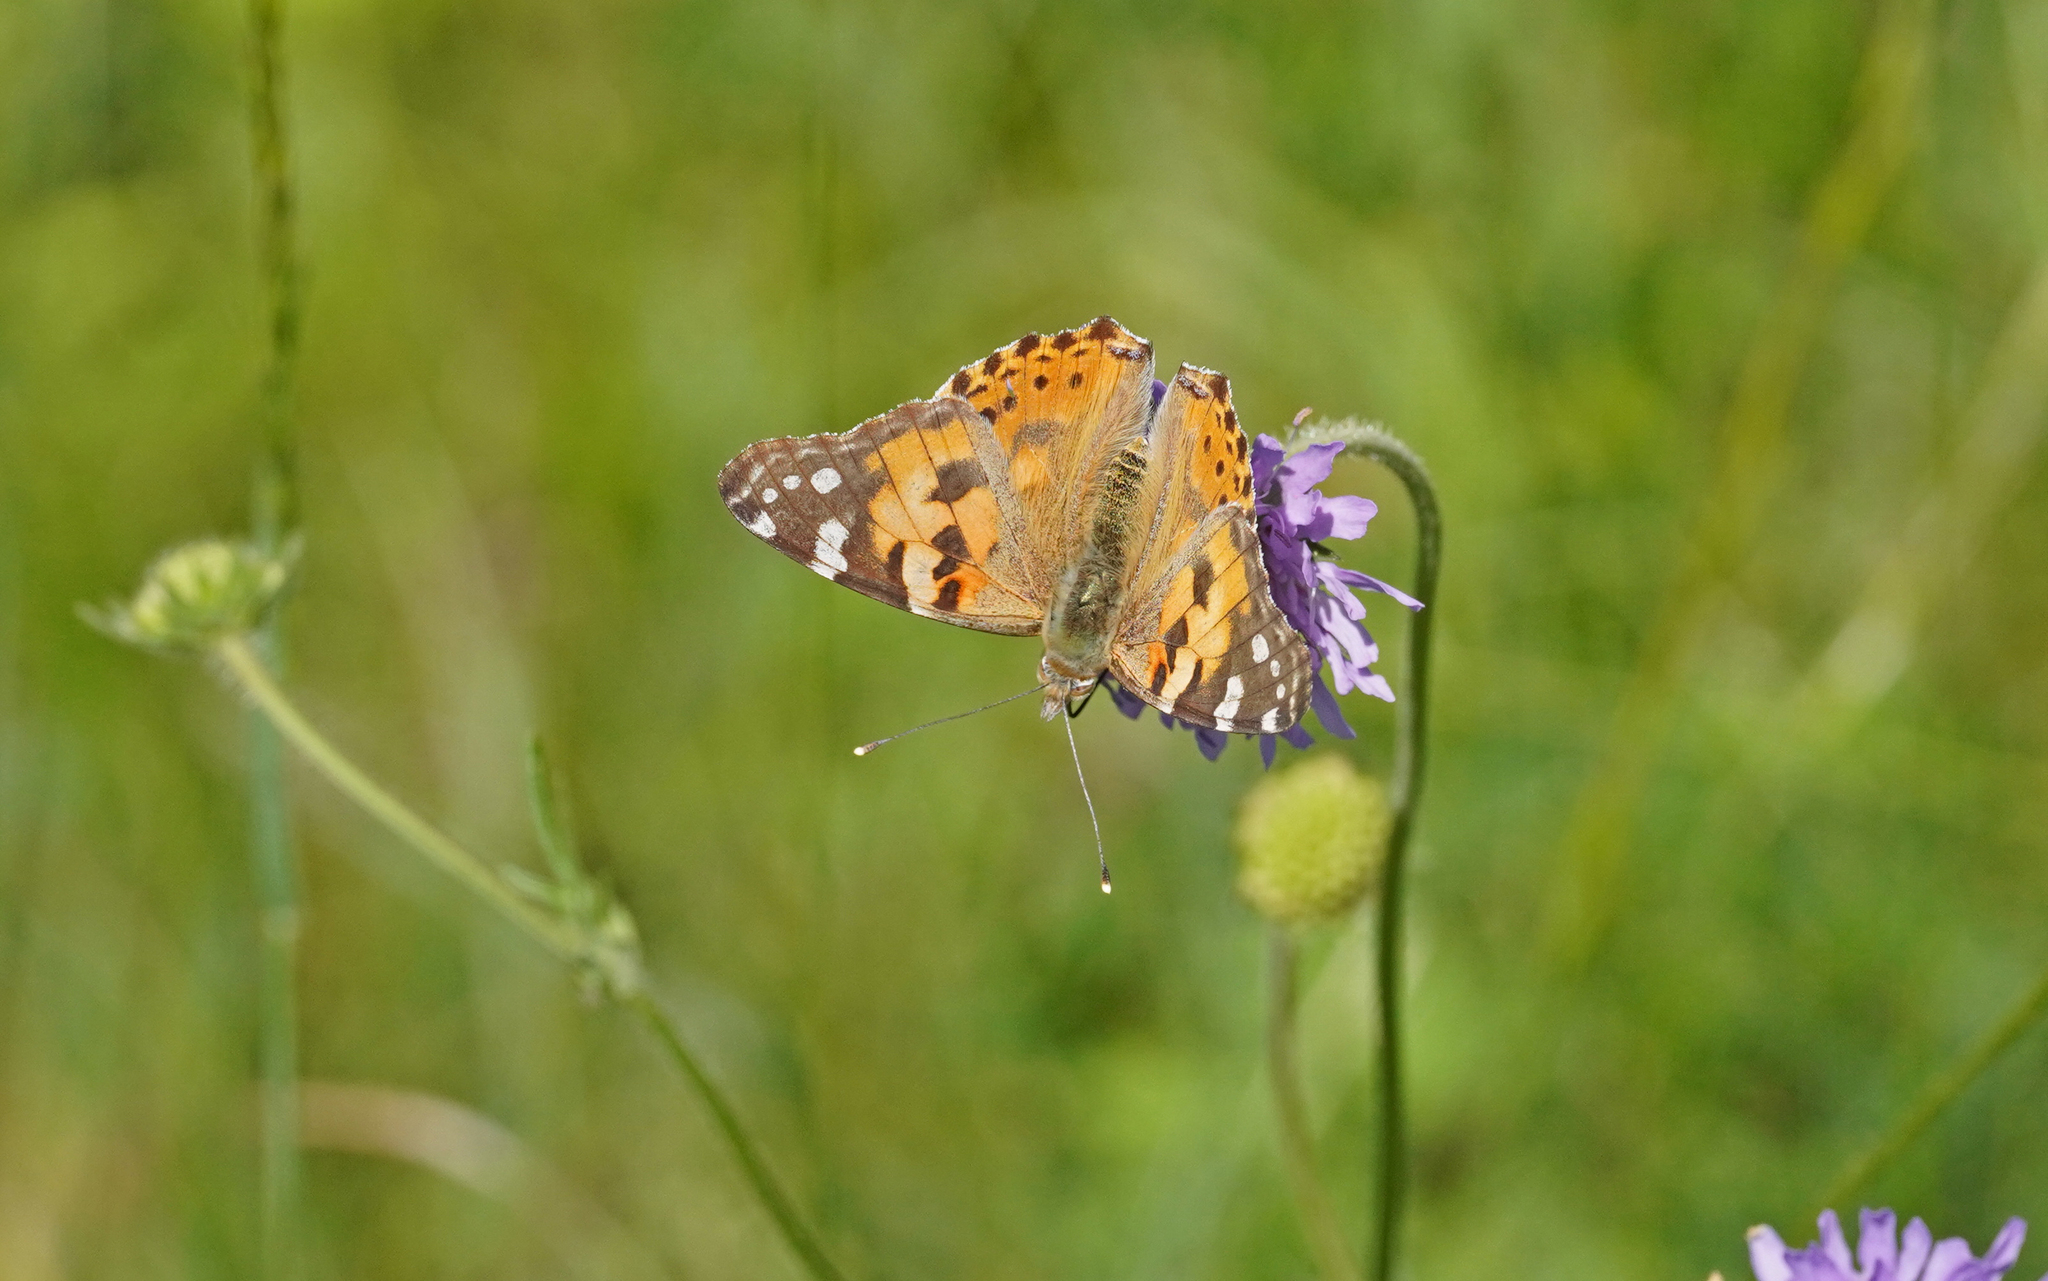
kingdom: Animalia
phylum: Arthropoda
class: Insecta
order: Lepidoptera
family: Nymphalidae
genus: Vanessa
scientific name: Vanessa cardui
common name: Painted lady
